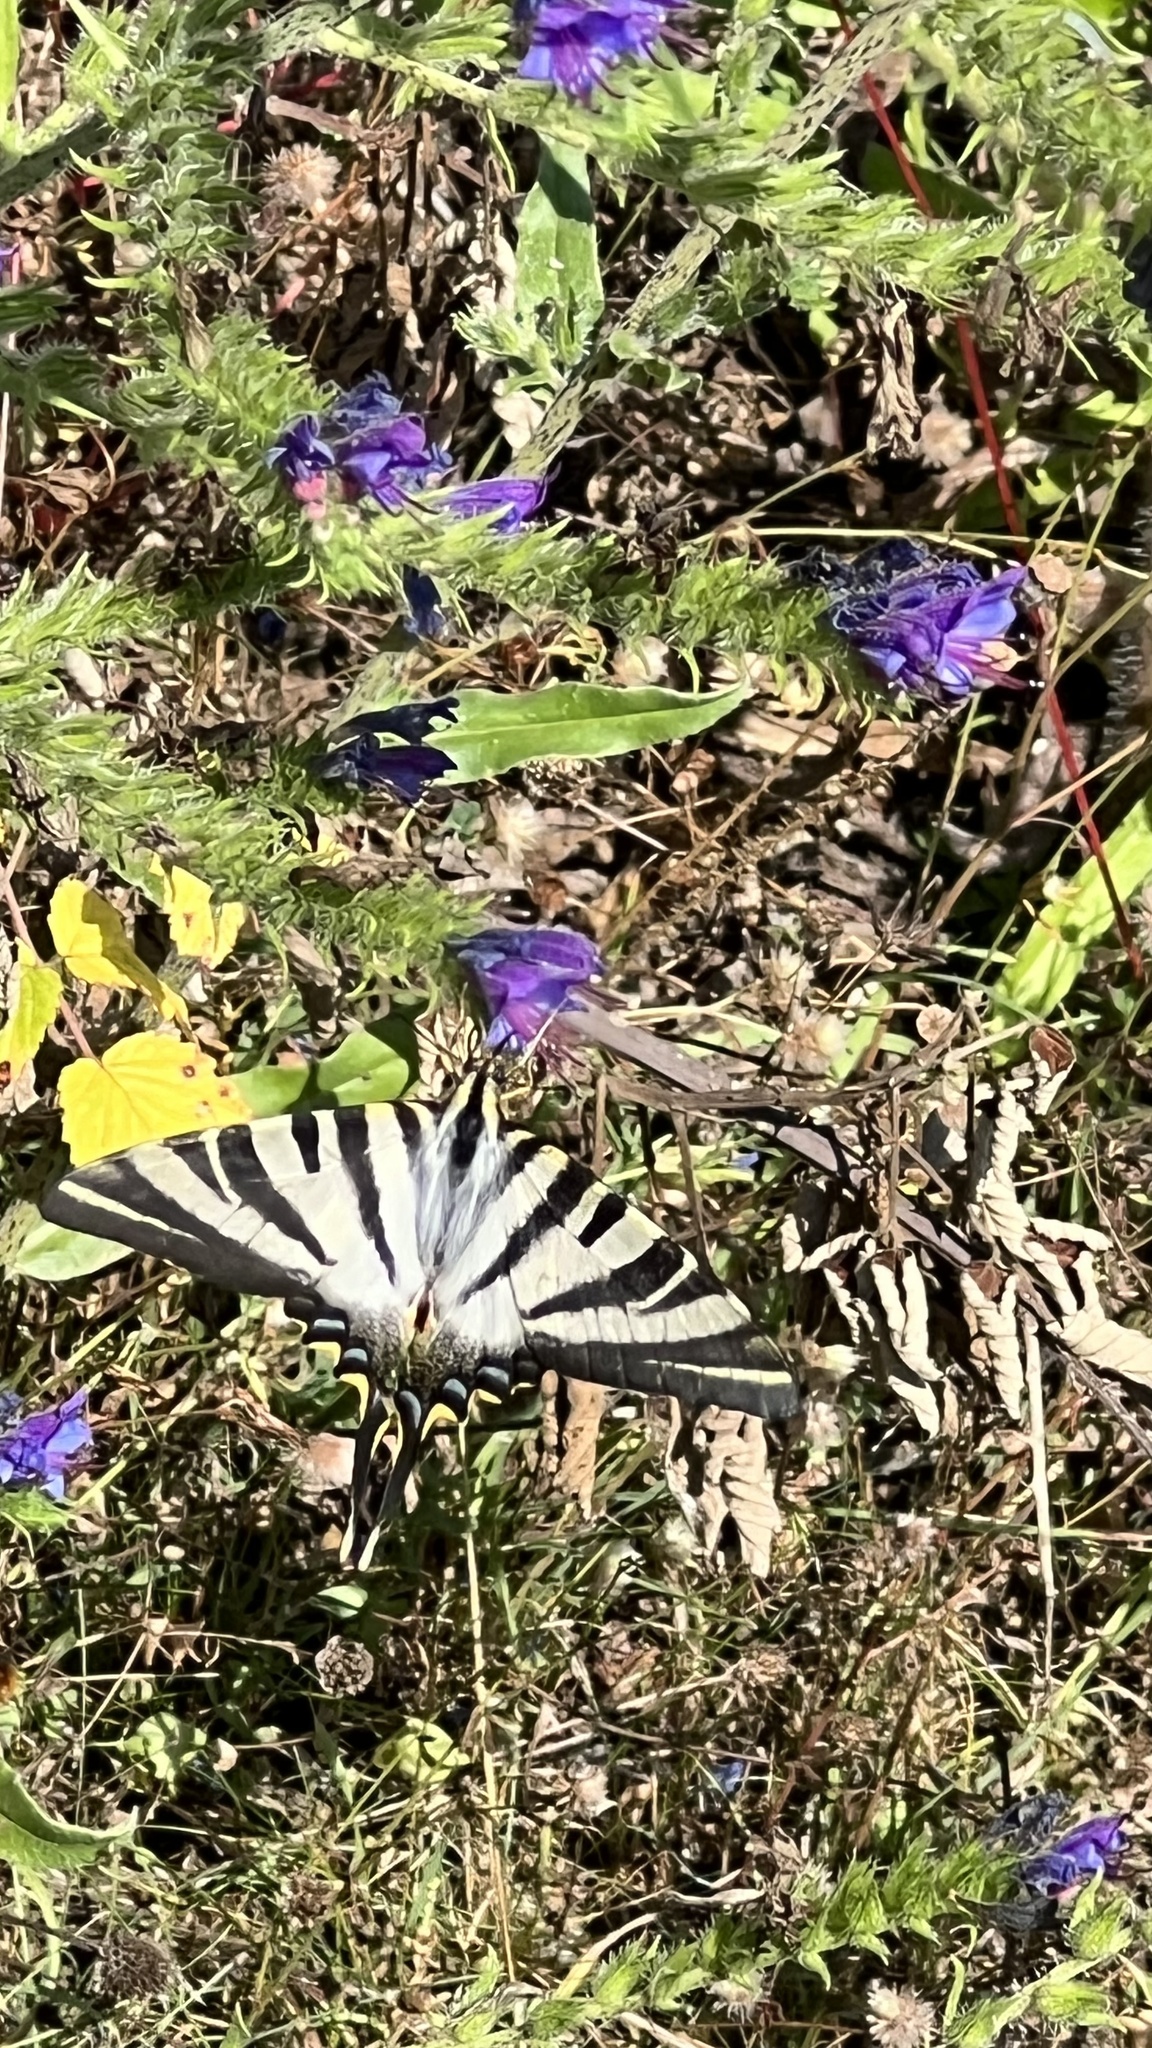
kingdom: Animalia
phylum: Arthropoda
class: Insecta
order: Lepidoptera
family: Papilionidae
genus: Iphiclides
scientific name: Iphiclides feisthamelii
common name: Iberian scarce swallowtail
